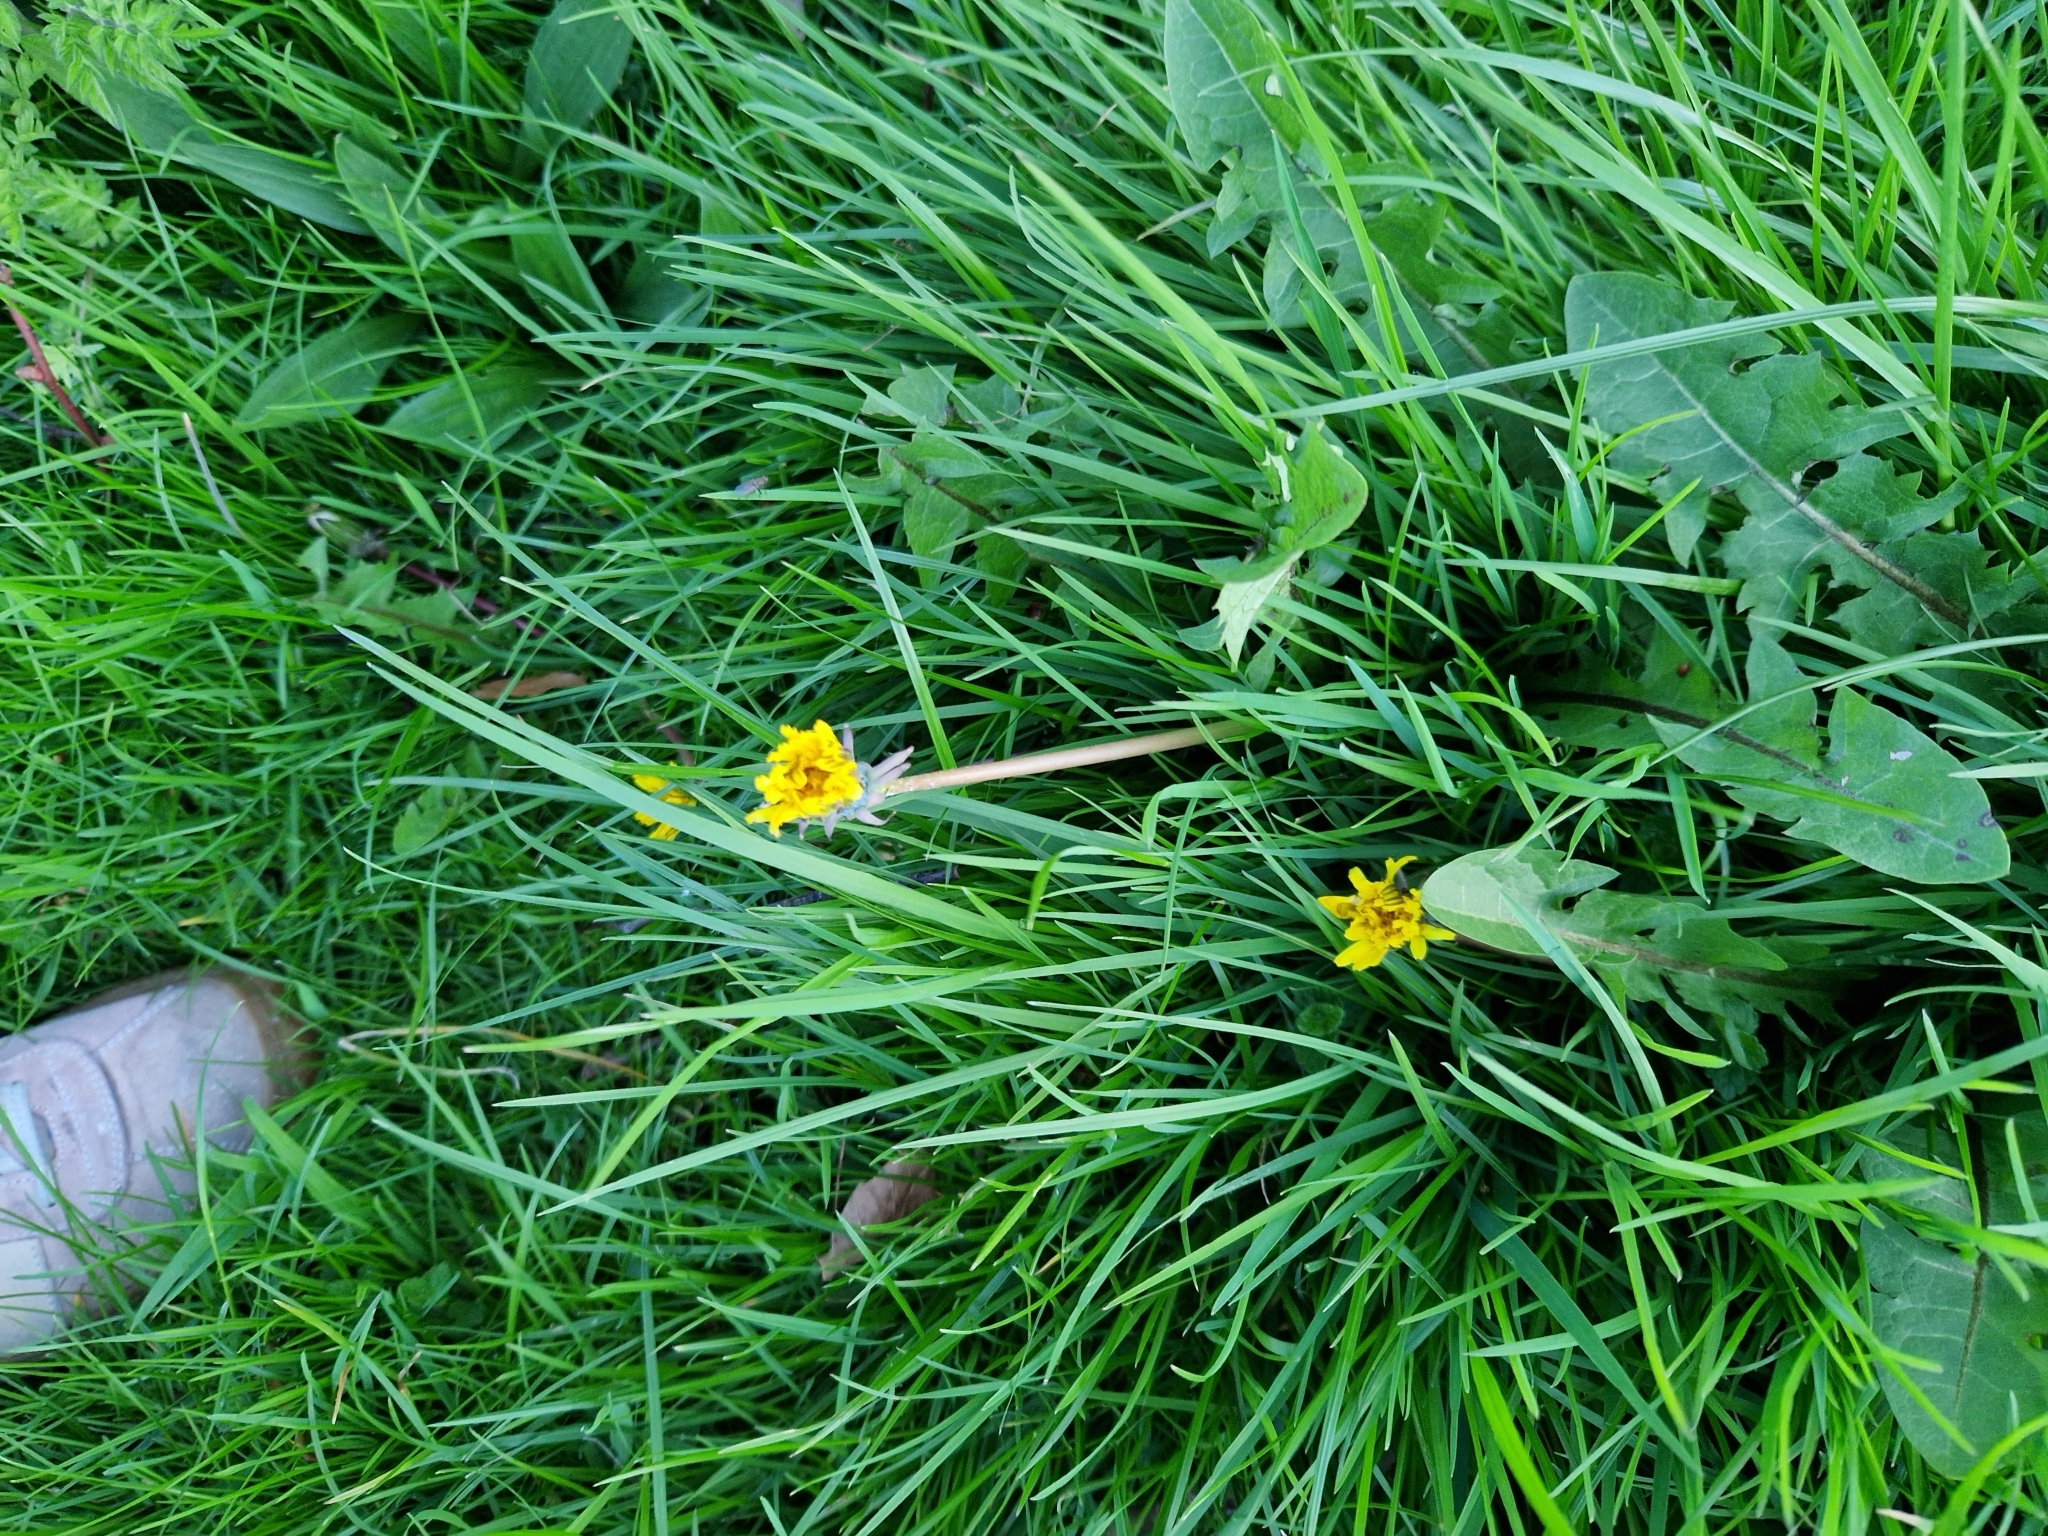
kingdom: Plantae
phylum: Tracheophyta
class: Magnoliopsida
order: Asterales
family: Asteraceae
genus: Taraxacum
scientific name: Taraxacum officinale
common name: Common dandelion
